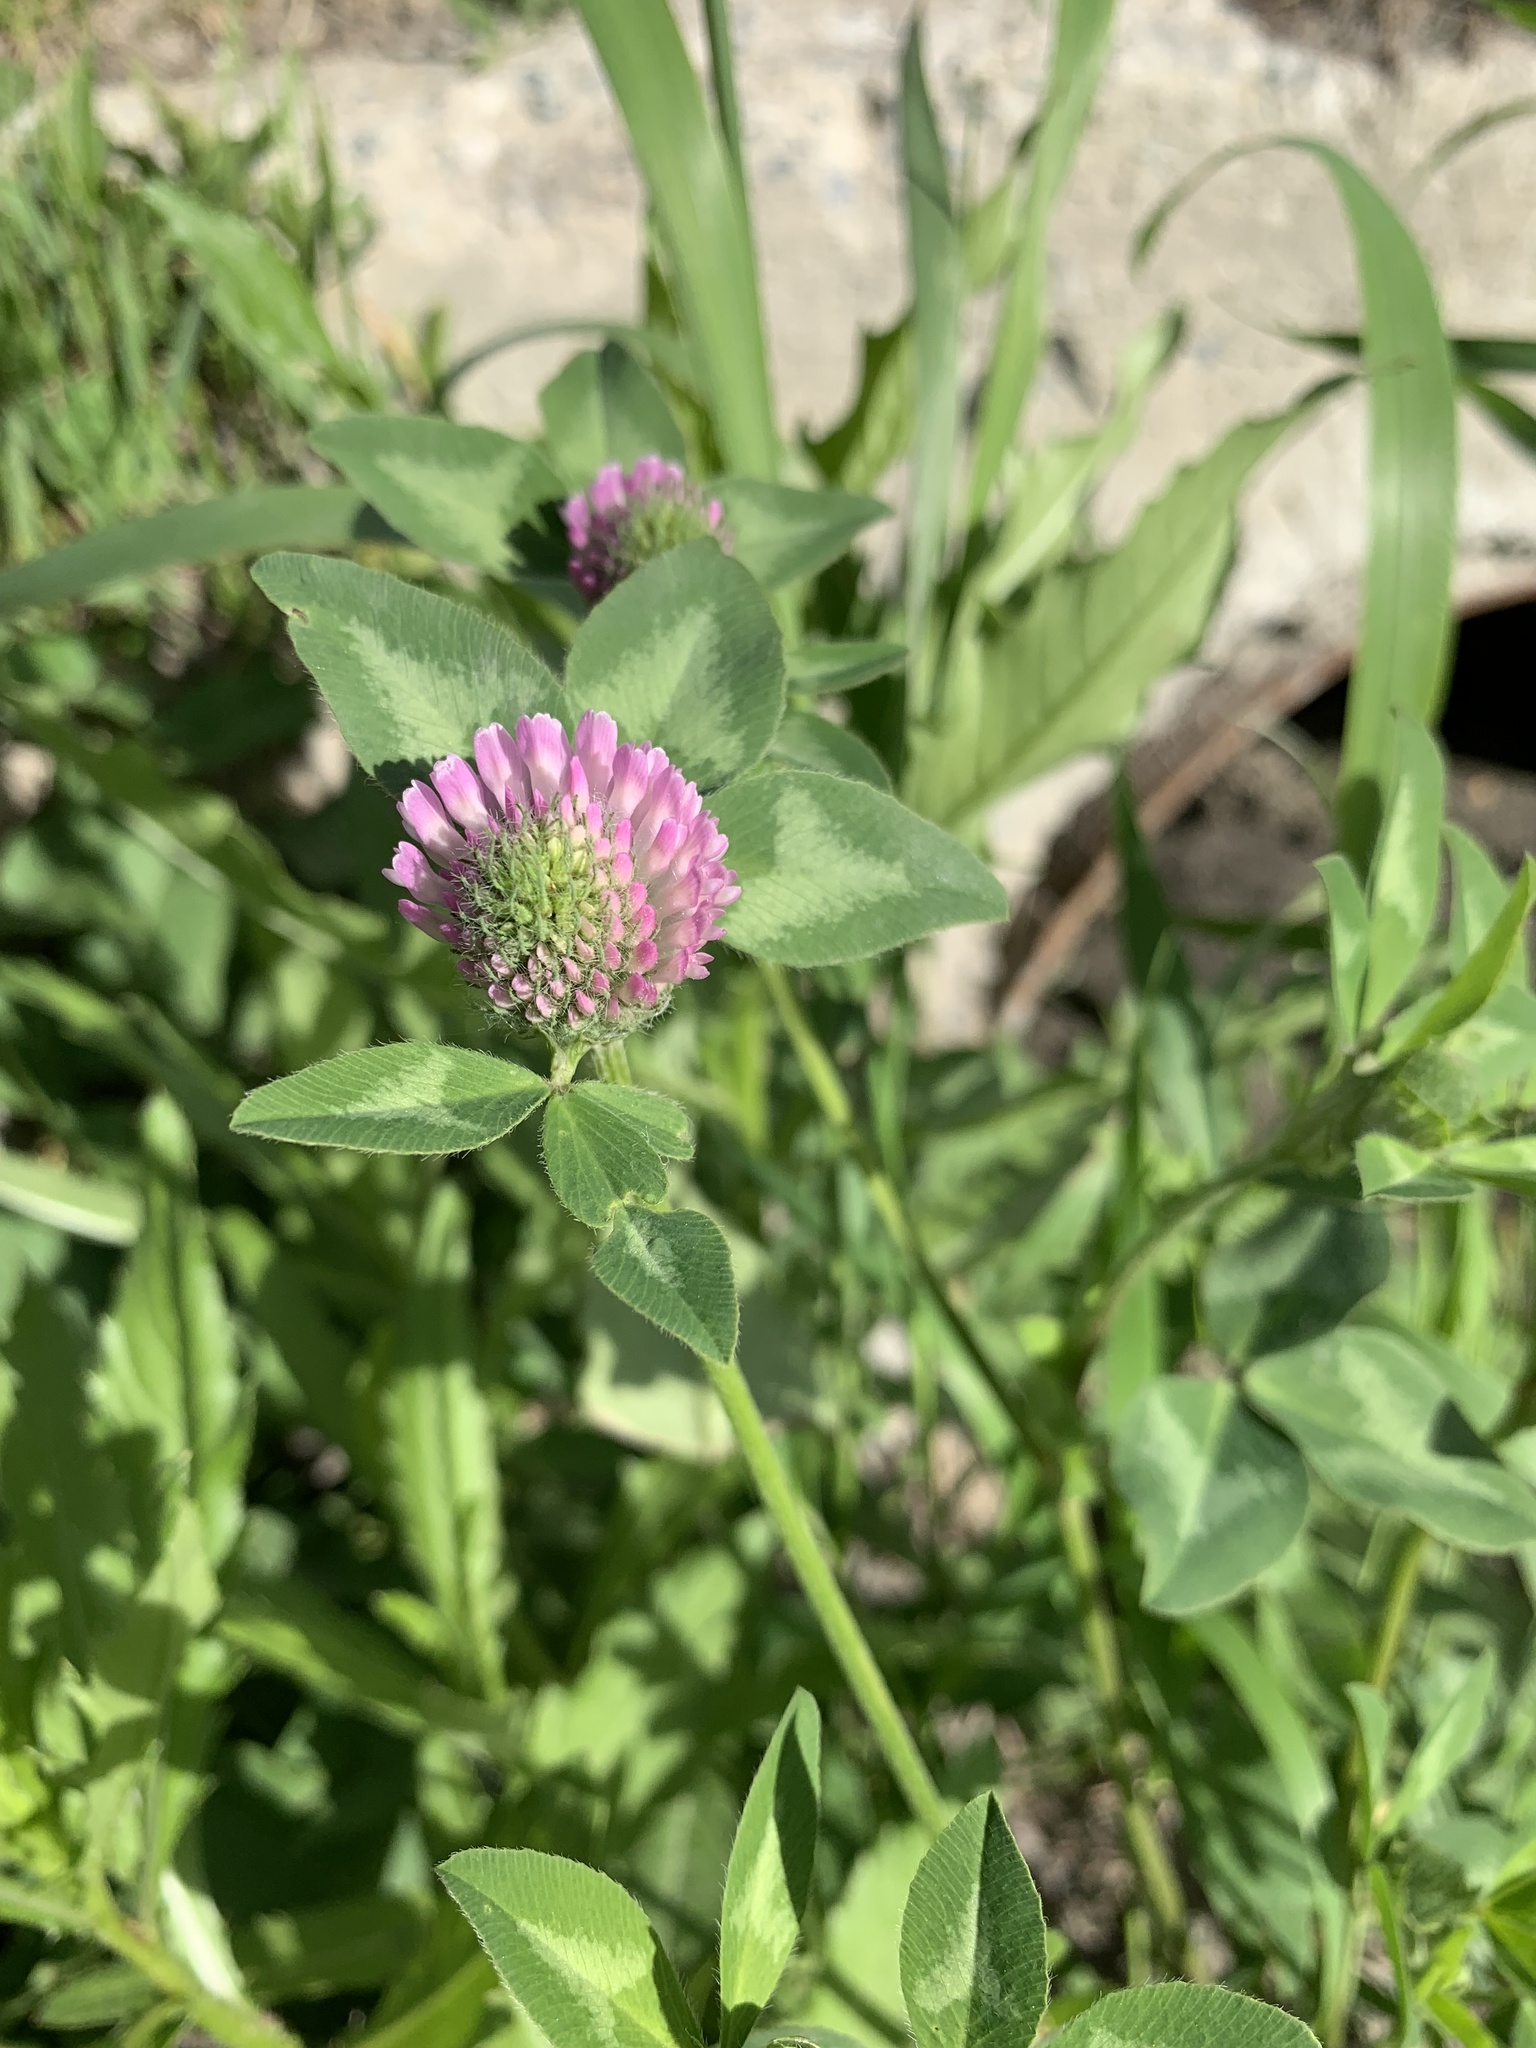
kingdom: Plantae
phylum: Tracheophyta
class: Magnoliopsida
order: Fabales
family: Fabaceae
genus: Trifolium
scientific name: Trifolium pratense
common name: Red clover
